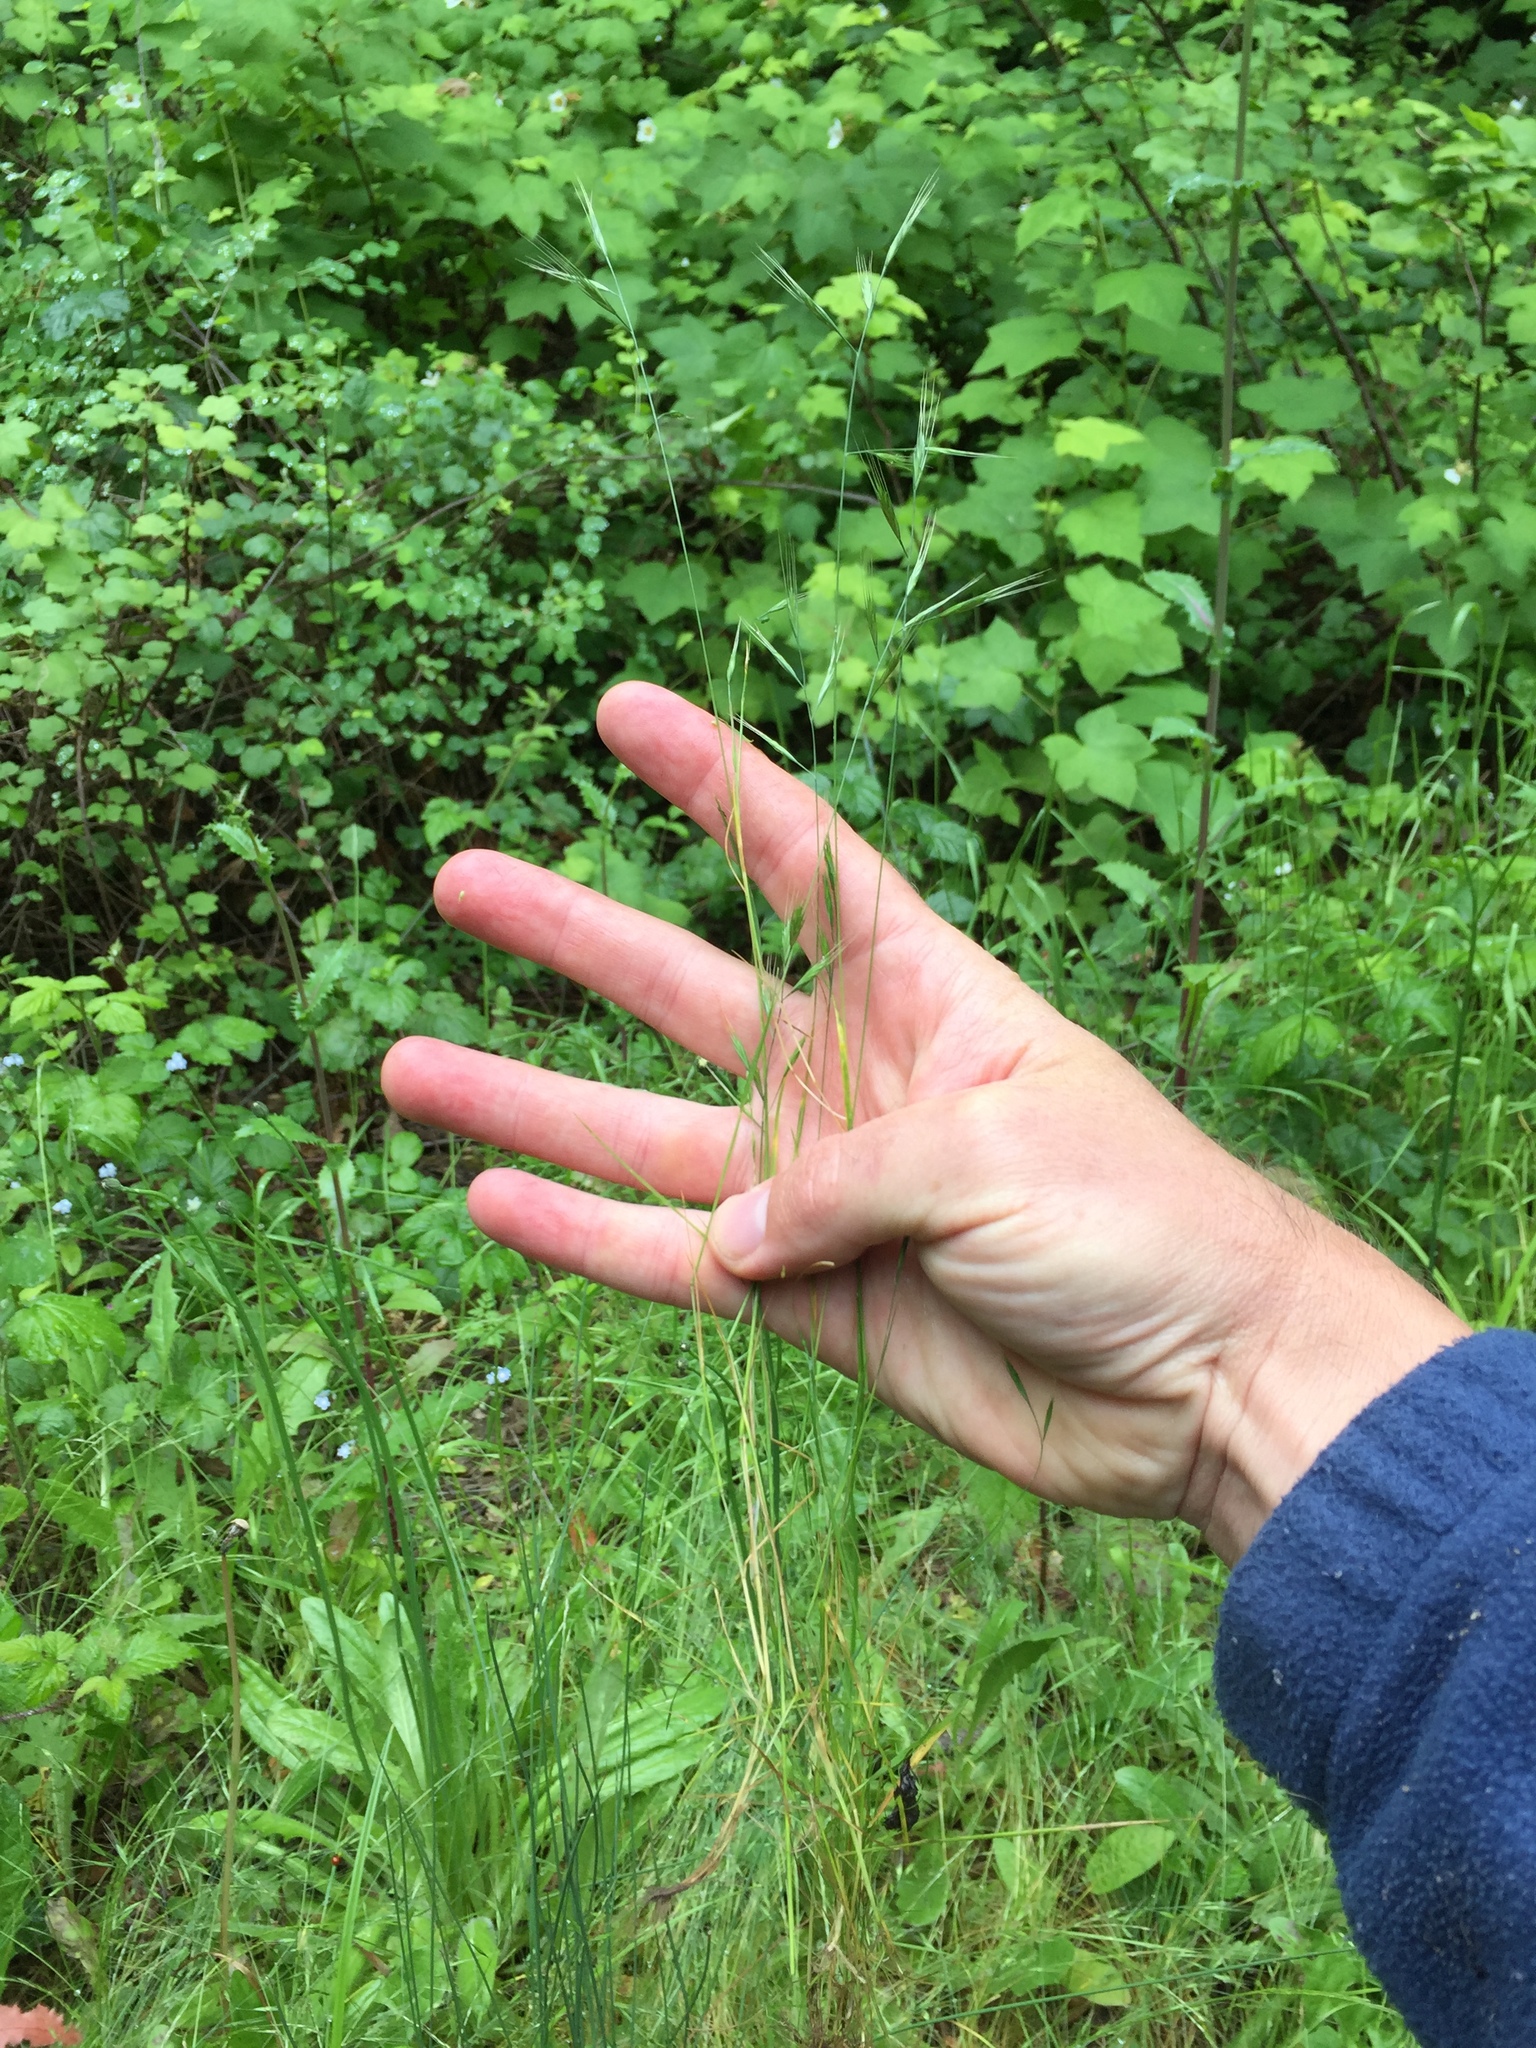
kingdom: Plantae
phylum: Tracheophyta
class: Liliopsida
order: Poales
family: Poaceae
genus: Festuca
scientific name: Festuca microstachys
